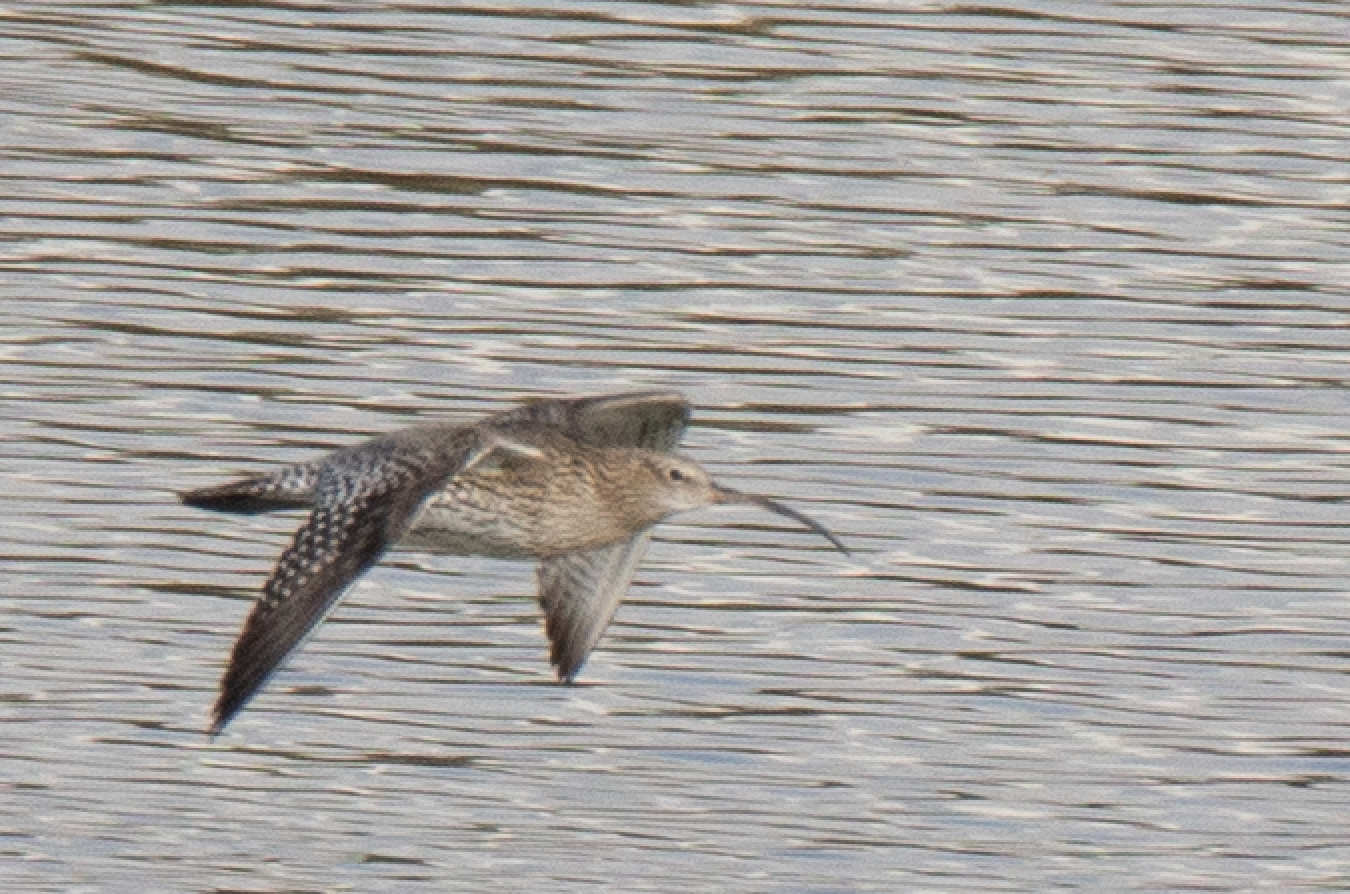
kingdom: Animalia
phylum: Chordata
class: Aves
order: Charadriiformes
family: Scolopacidae
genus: Numenius
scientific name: Numenius arquata
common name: Eurasian curlew
